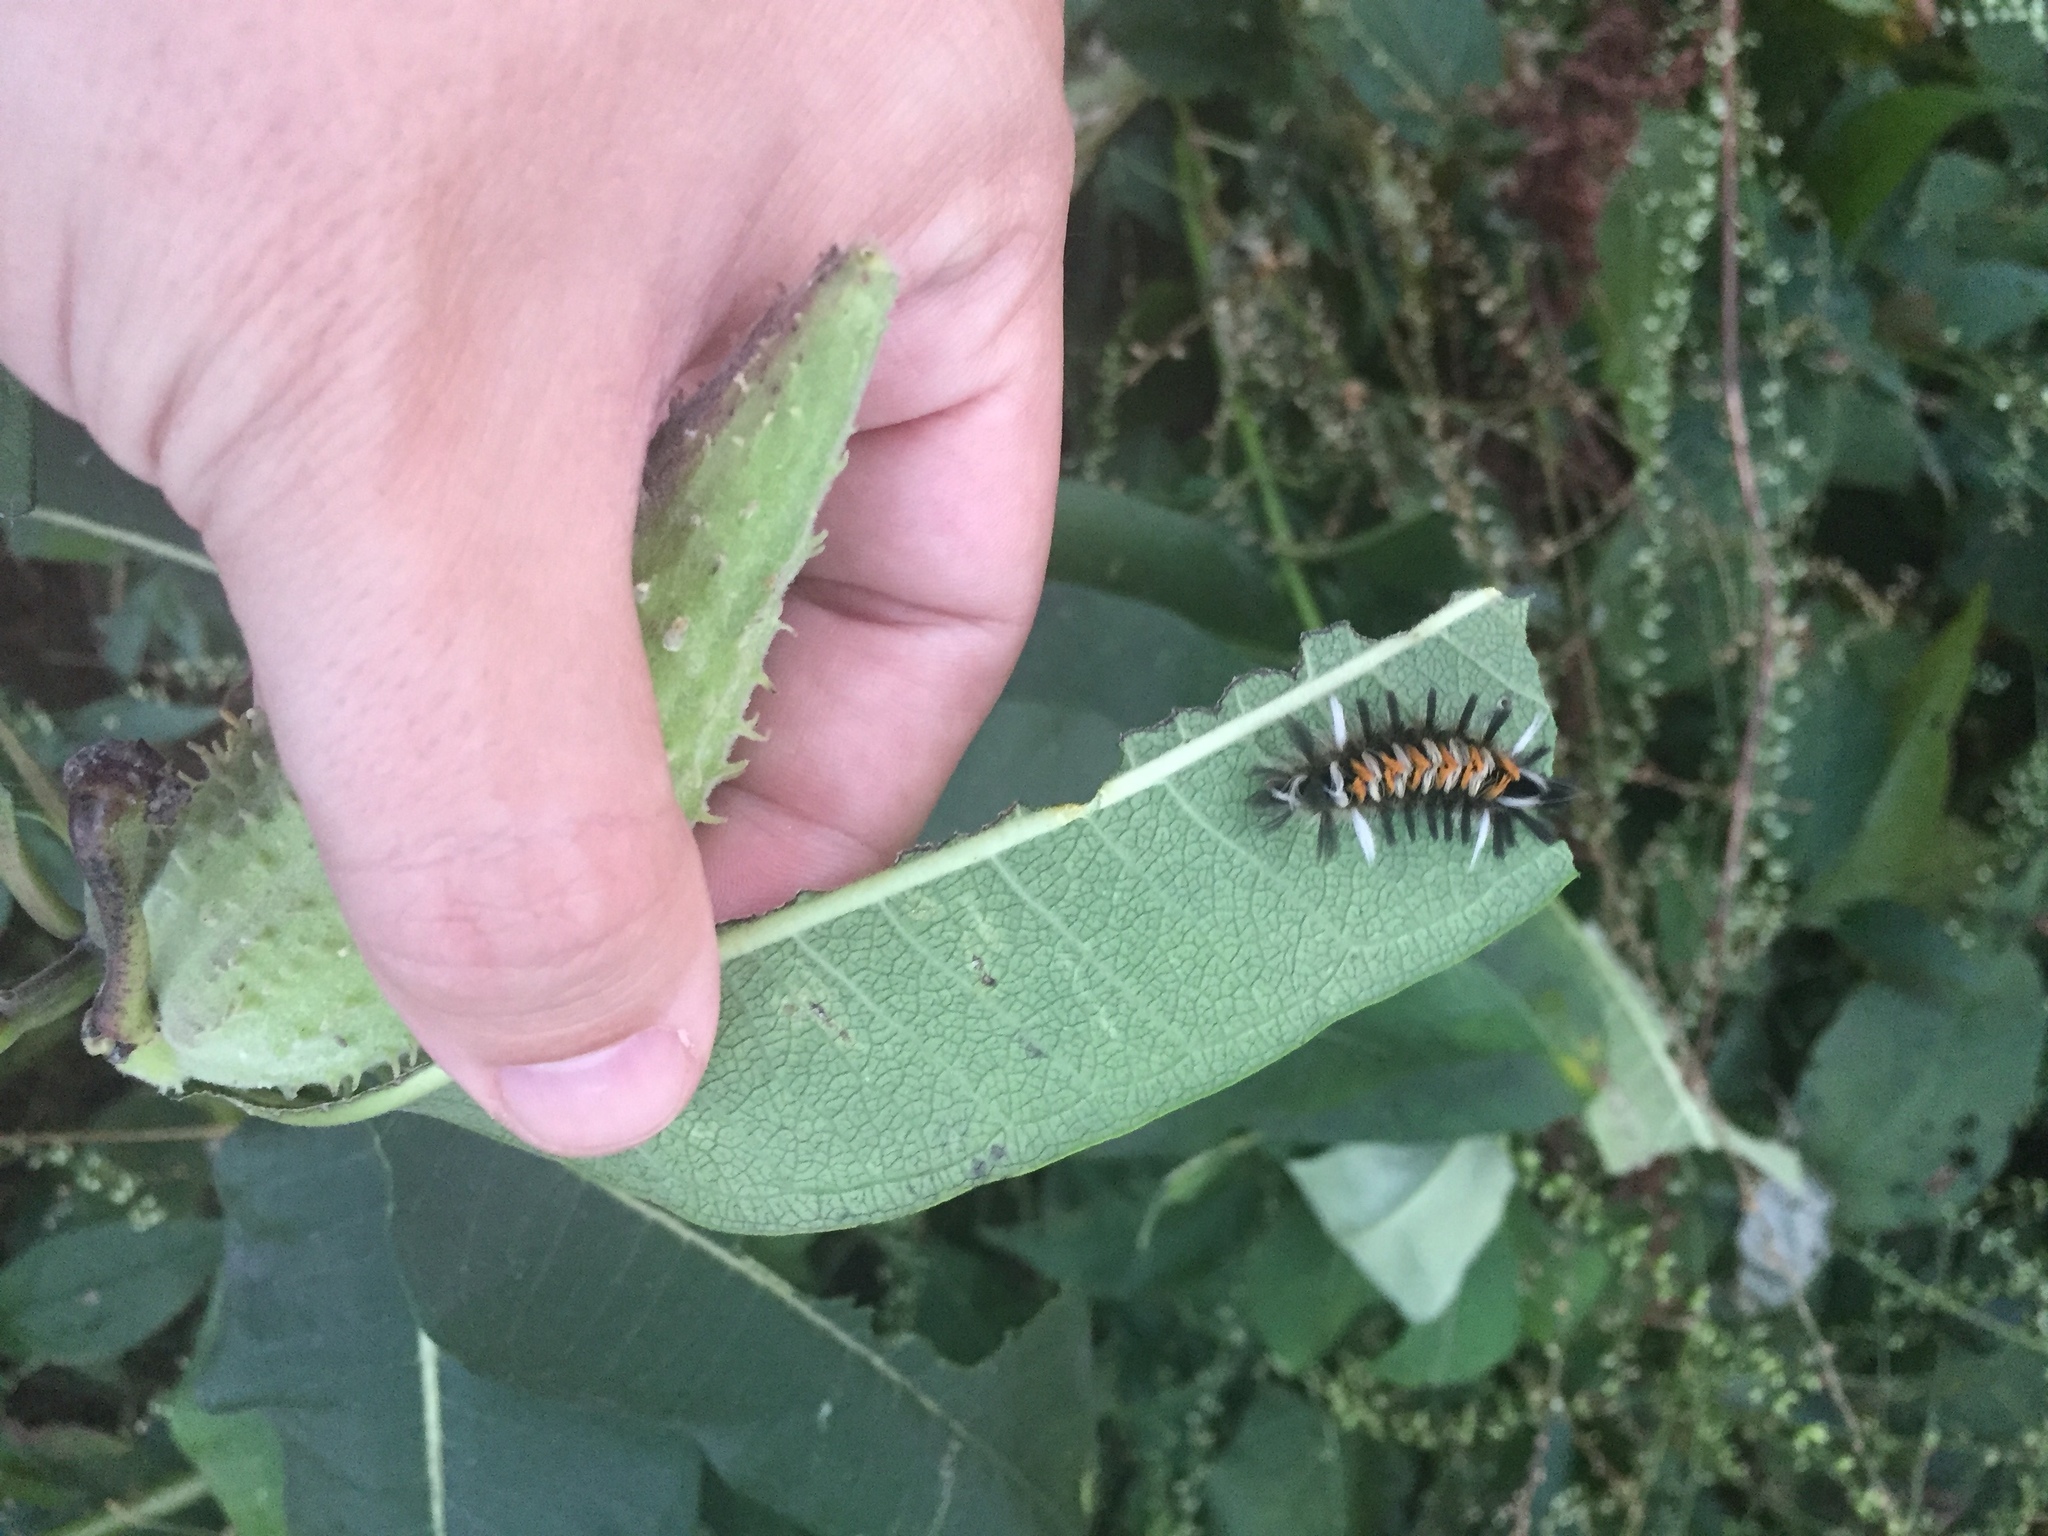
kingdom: Animalia
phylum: Arthropoda
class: Insecta
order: Lepidoptera
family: Erebidae
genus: Euchaetes
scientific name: Euchaetes egle
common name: Milkweed tussock moth
